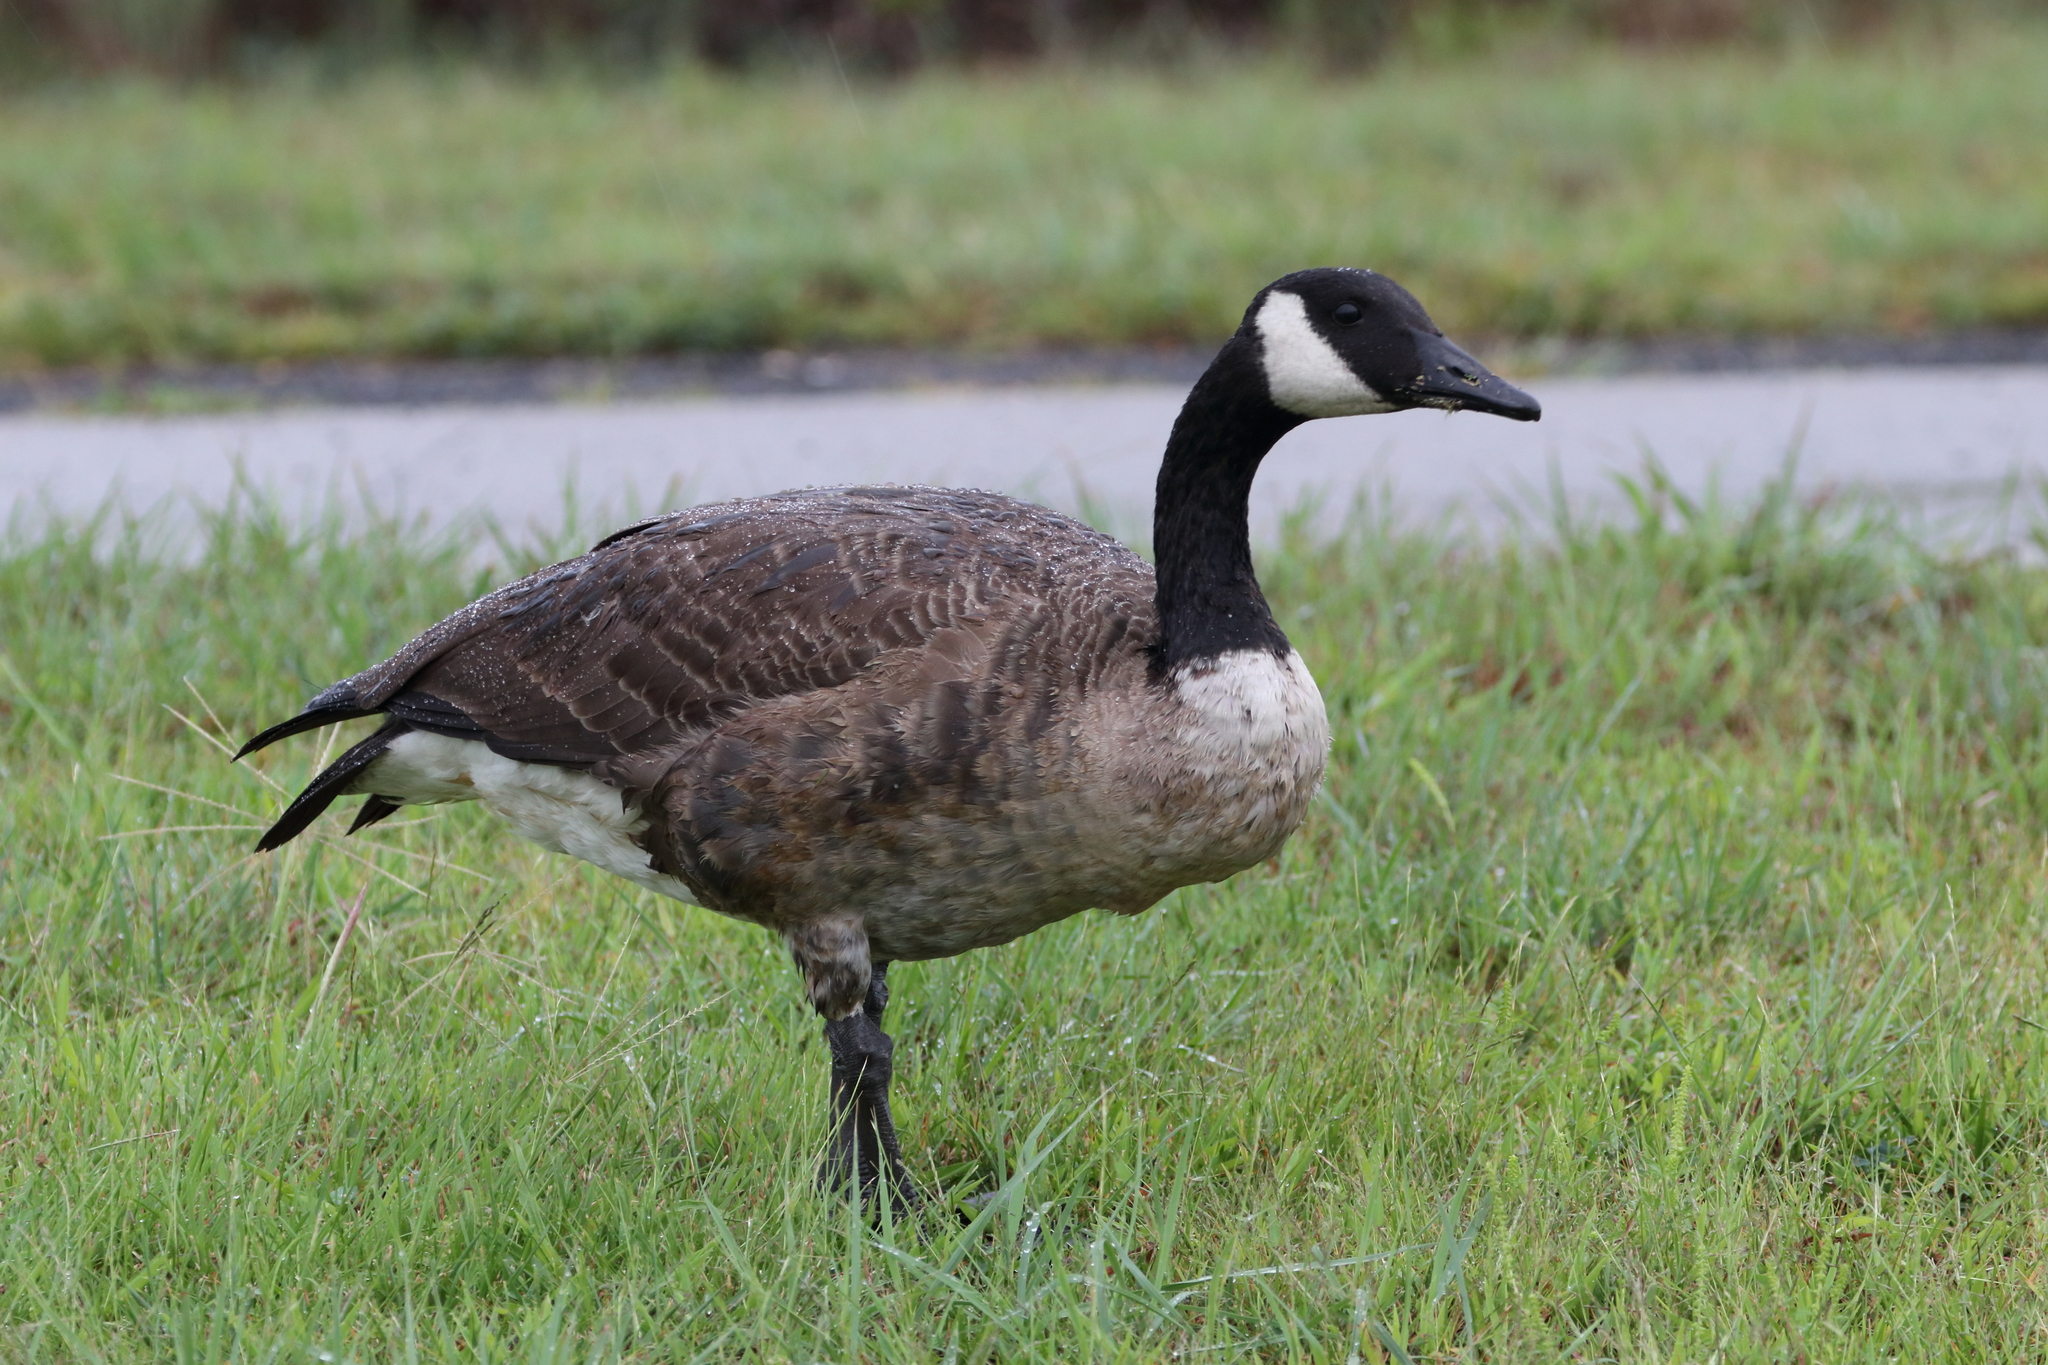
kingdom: Animalia
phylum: Chordata
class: Aves
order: Anseriformes
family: Anatidae
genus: Branta
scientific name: Branta canadensis
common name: Canada goose
